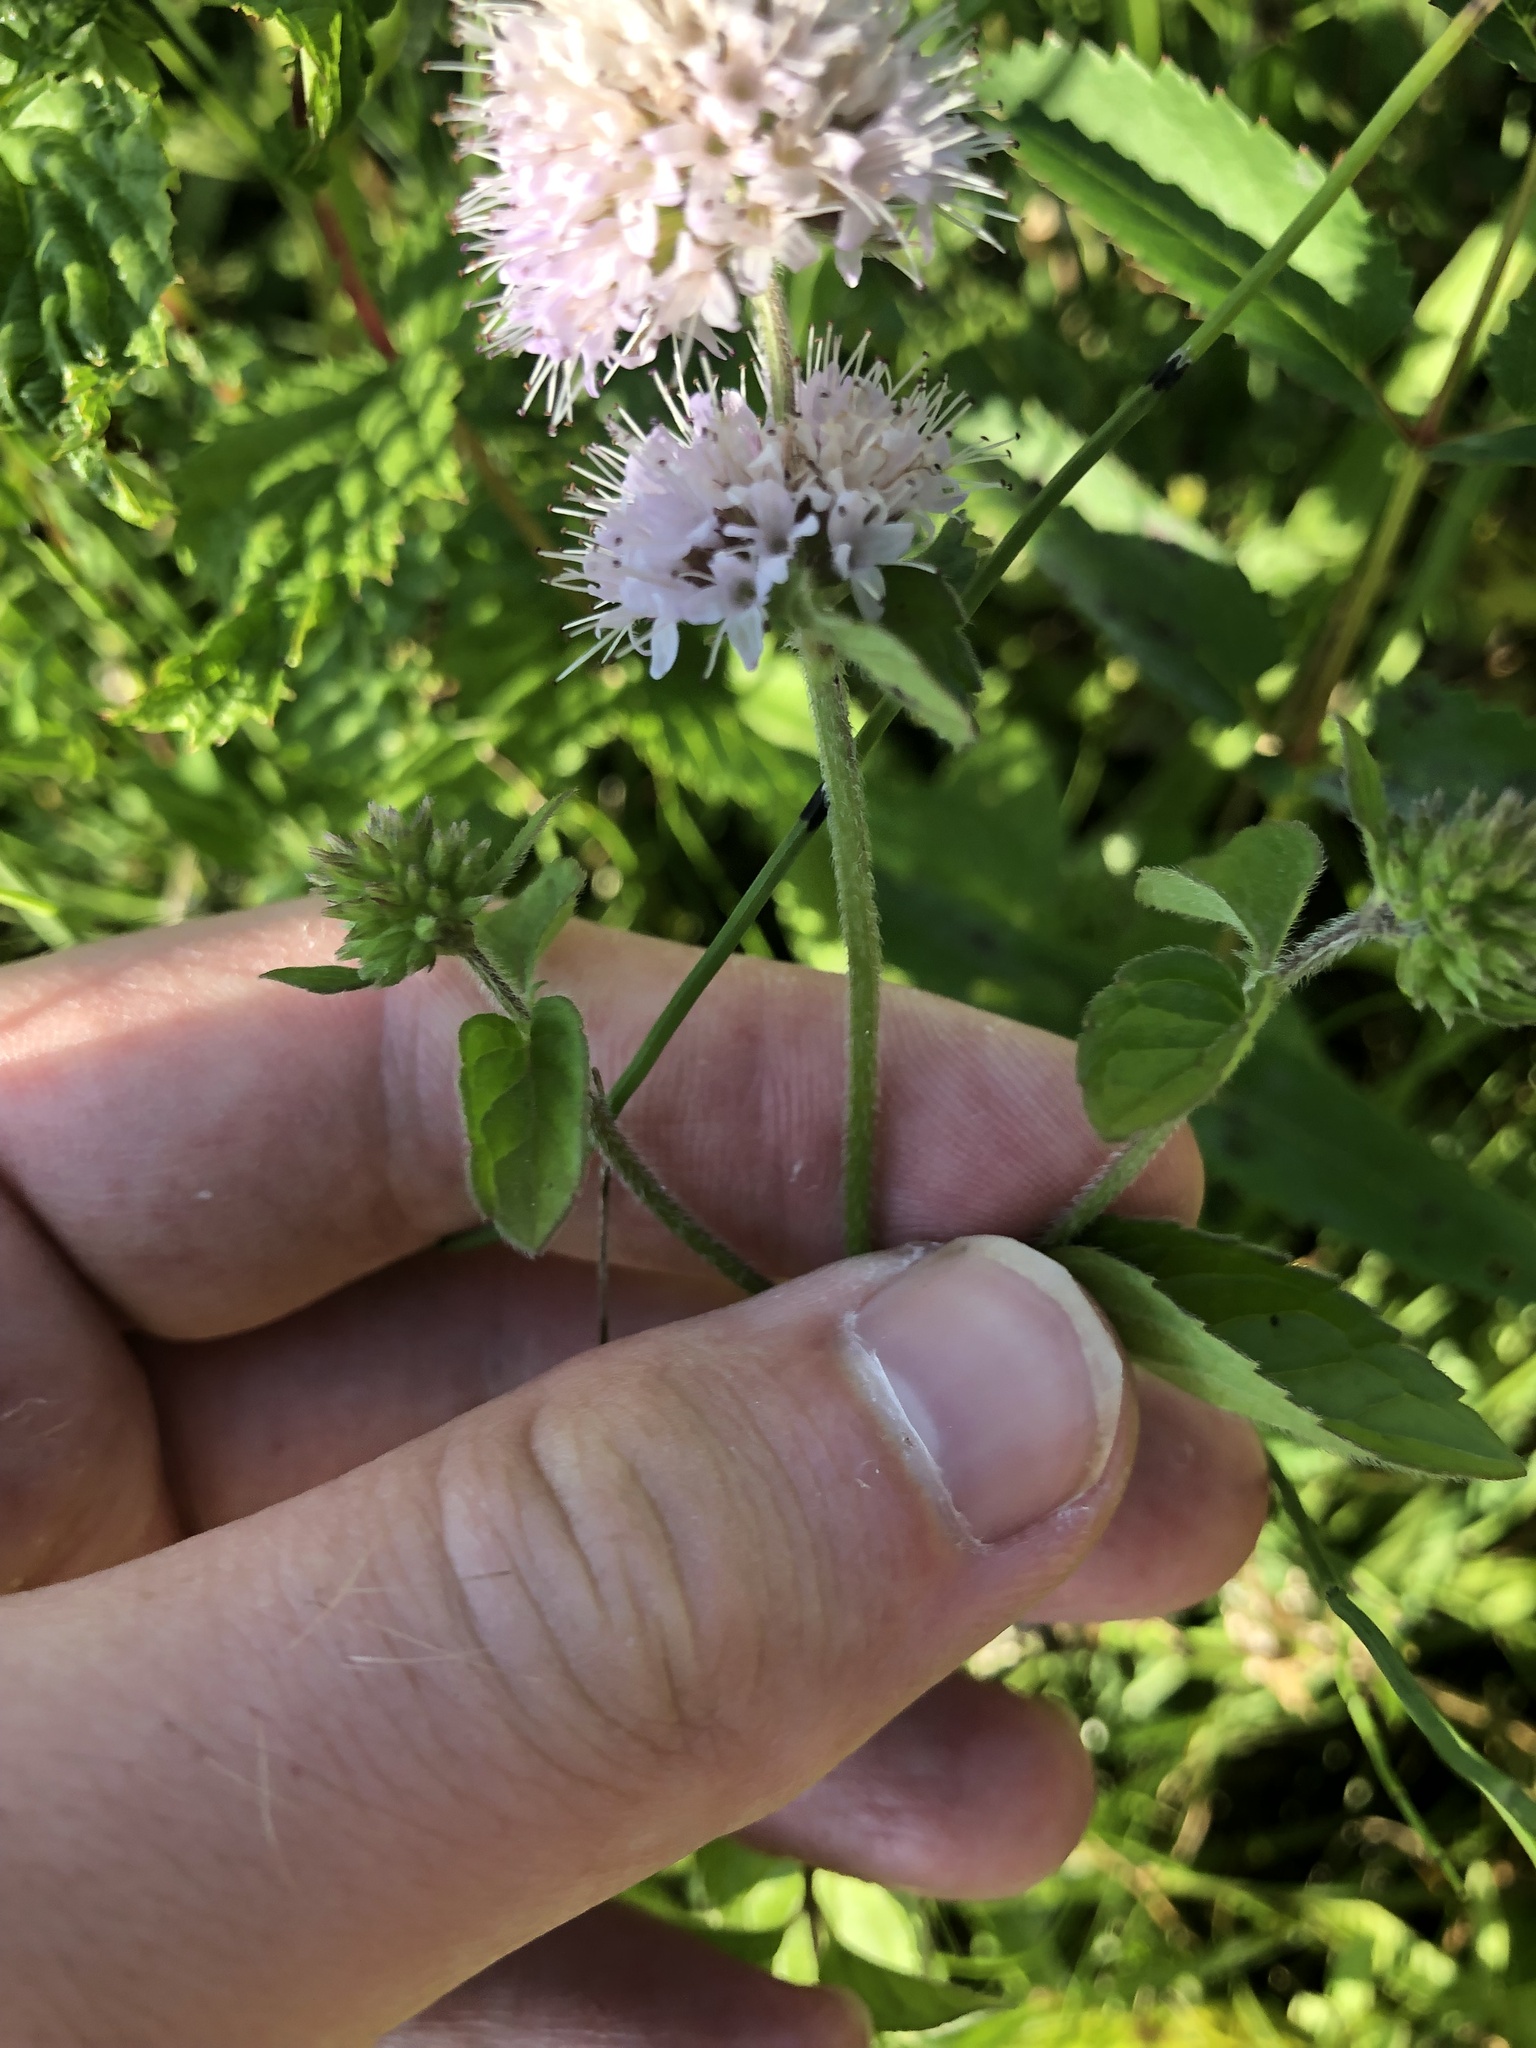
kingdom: Plantae
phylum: Tracheophyta
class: Magnoliopsida
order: Lamiales
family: Lamiaceae
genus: Mentha
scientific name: Mentha aquatica
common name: Water mint
